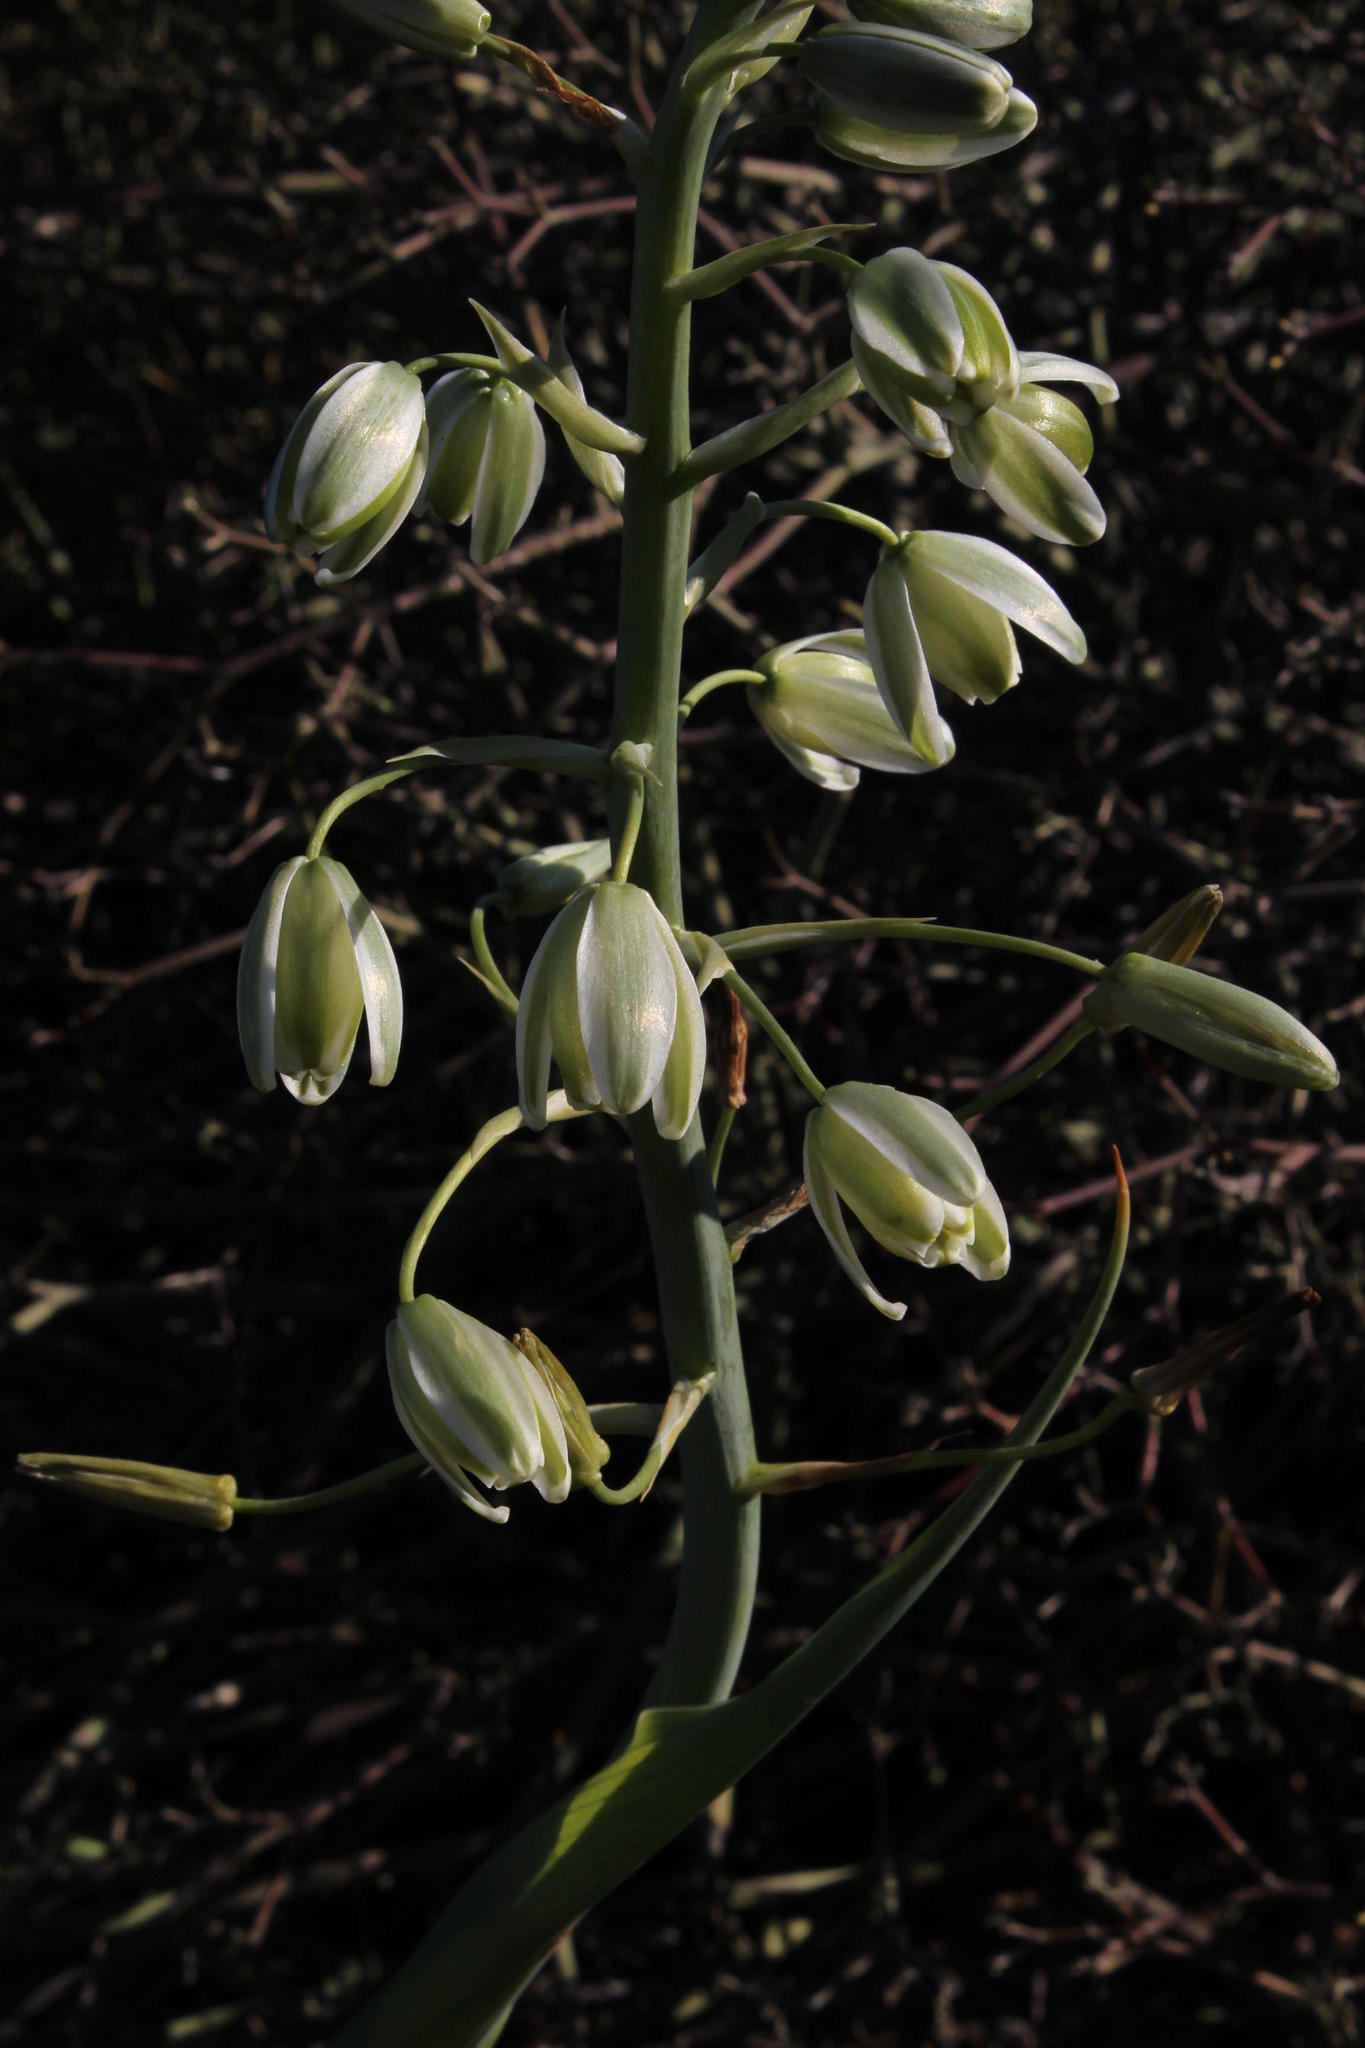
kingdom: Plantae
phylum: Tracheophyta
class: Liliopsida
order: Asparagales
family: Asparagaceae
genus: Albuca
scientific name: Albuca canadensis
